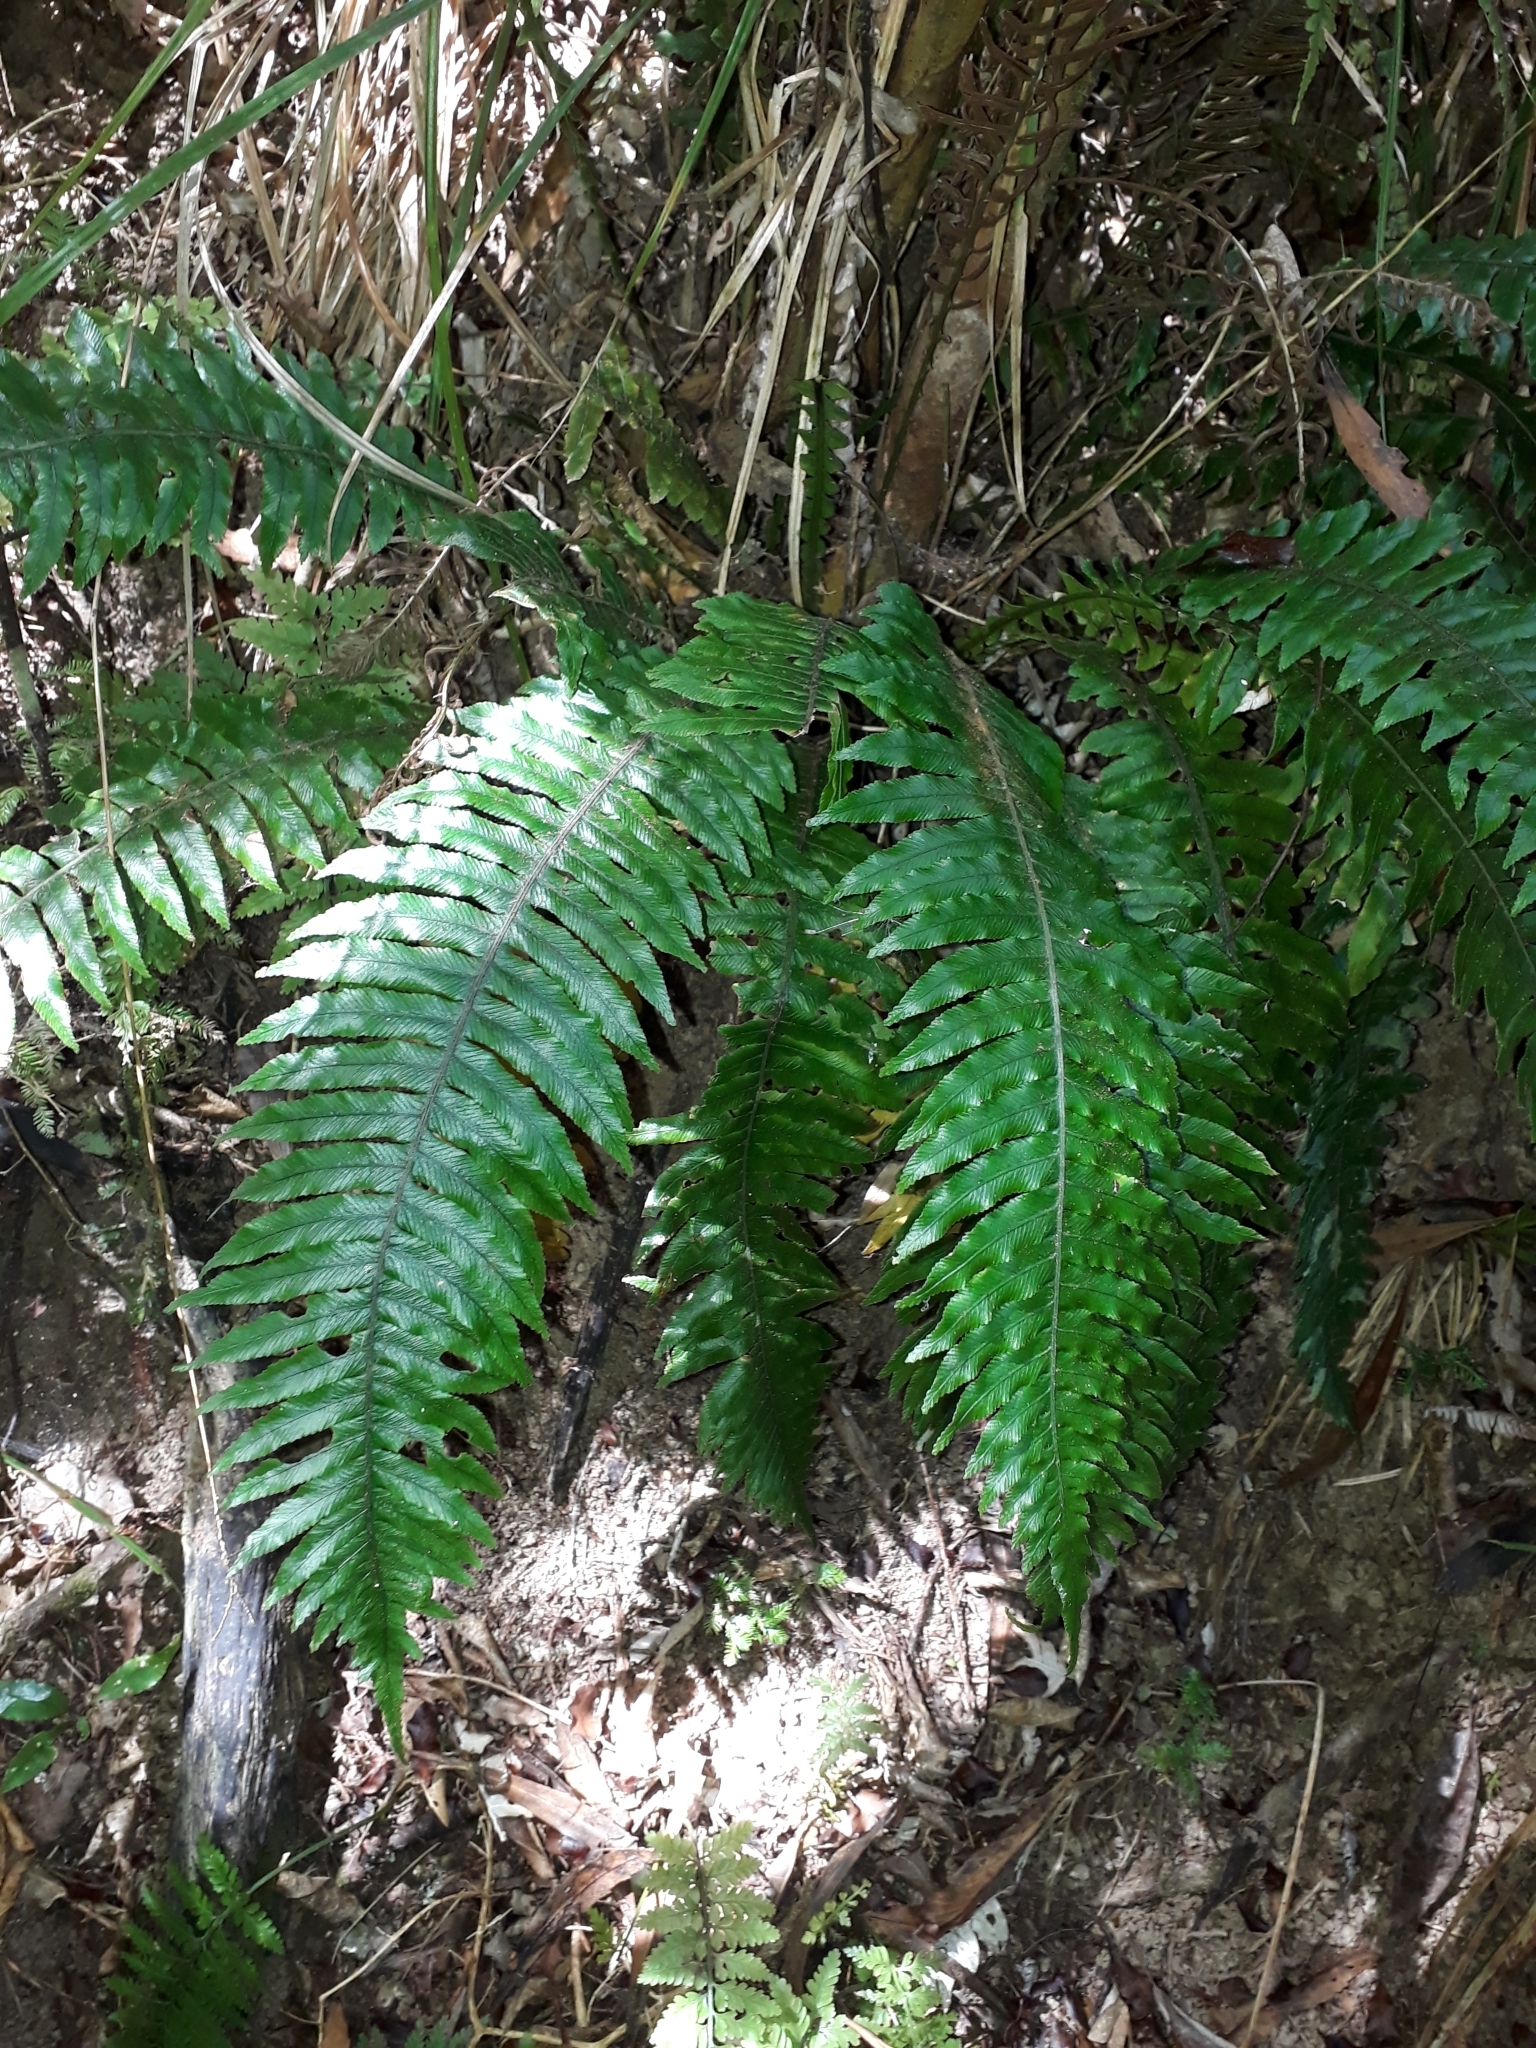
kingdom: Plantae
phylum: Tracheophyta
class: Polypodiopsida
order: Polypodiales
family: Blechnaceae
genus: Austroblechnum
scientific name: Austroblechnum lanceolatum
